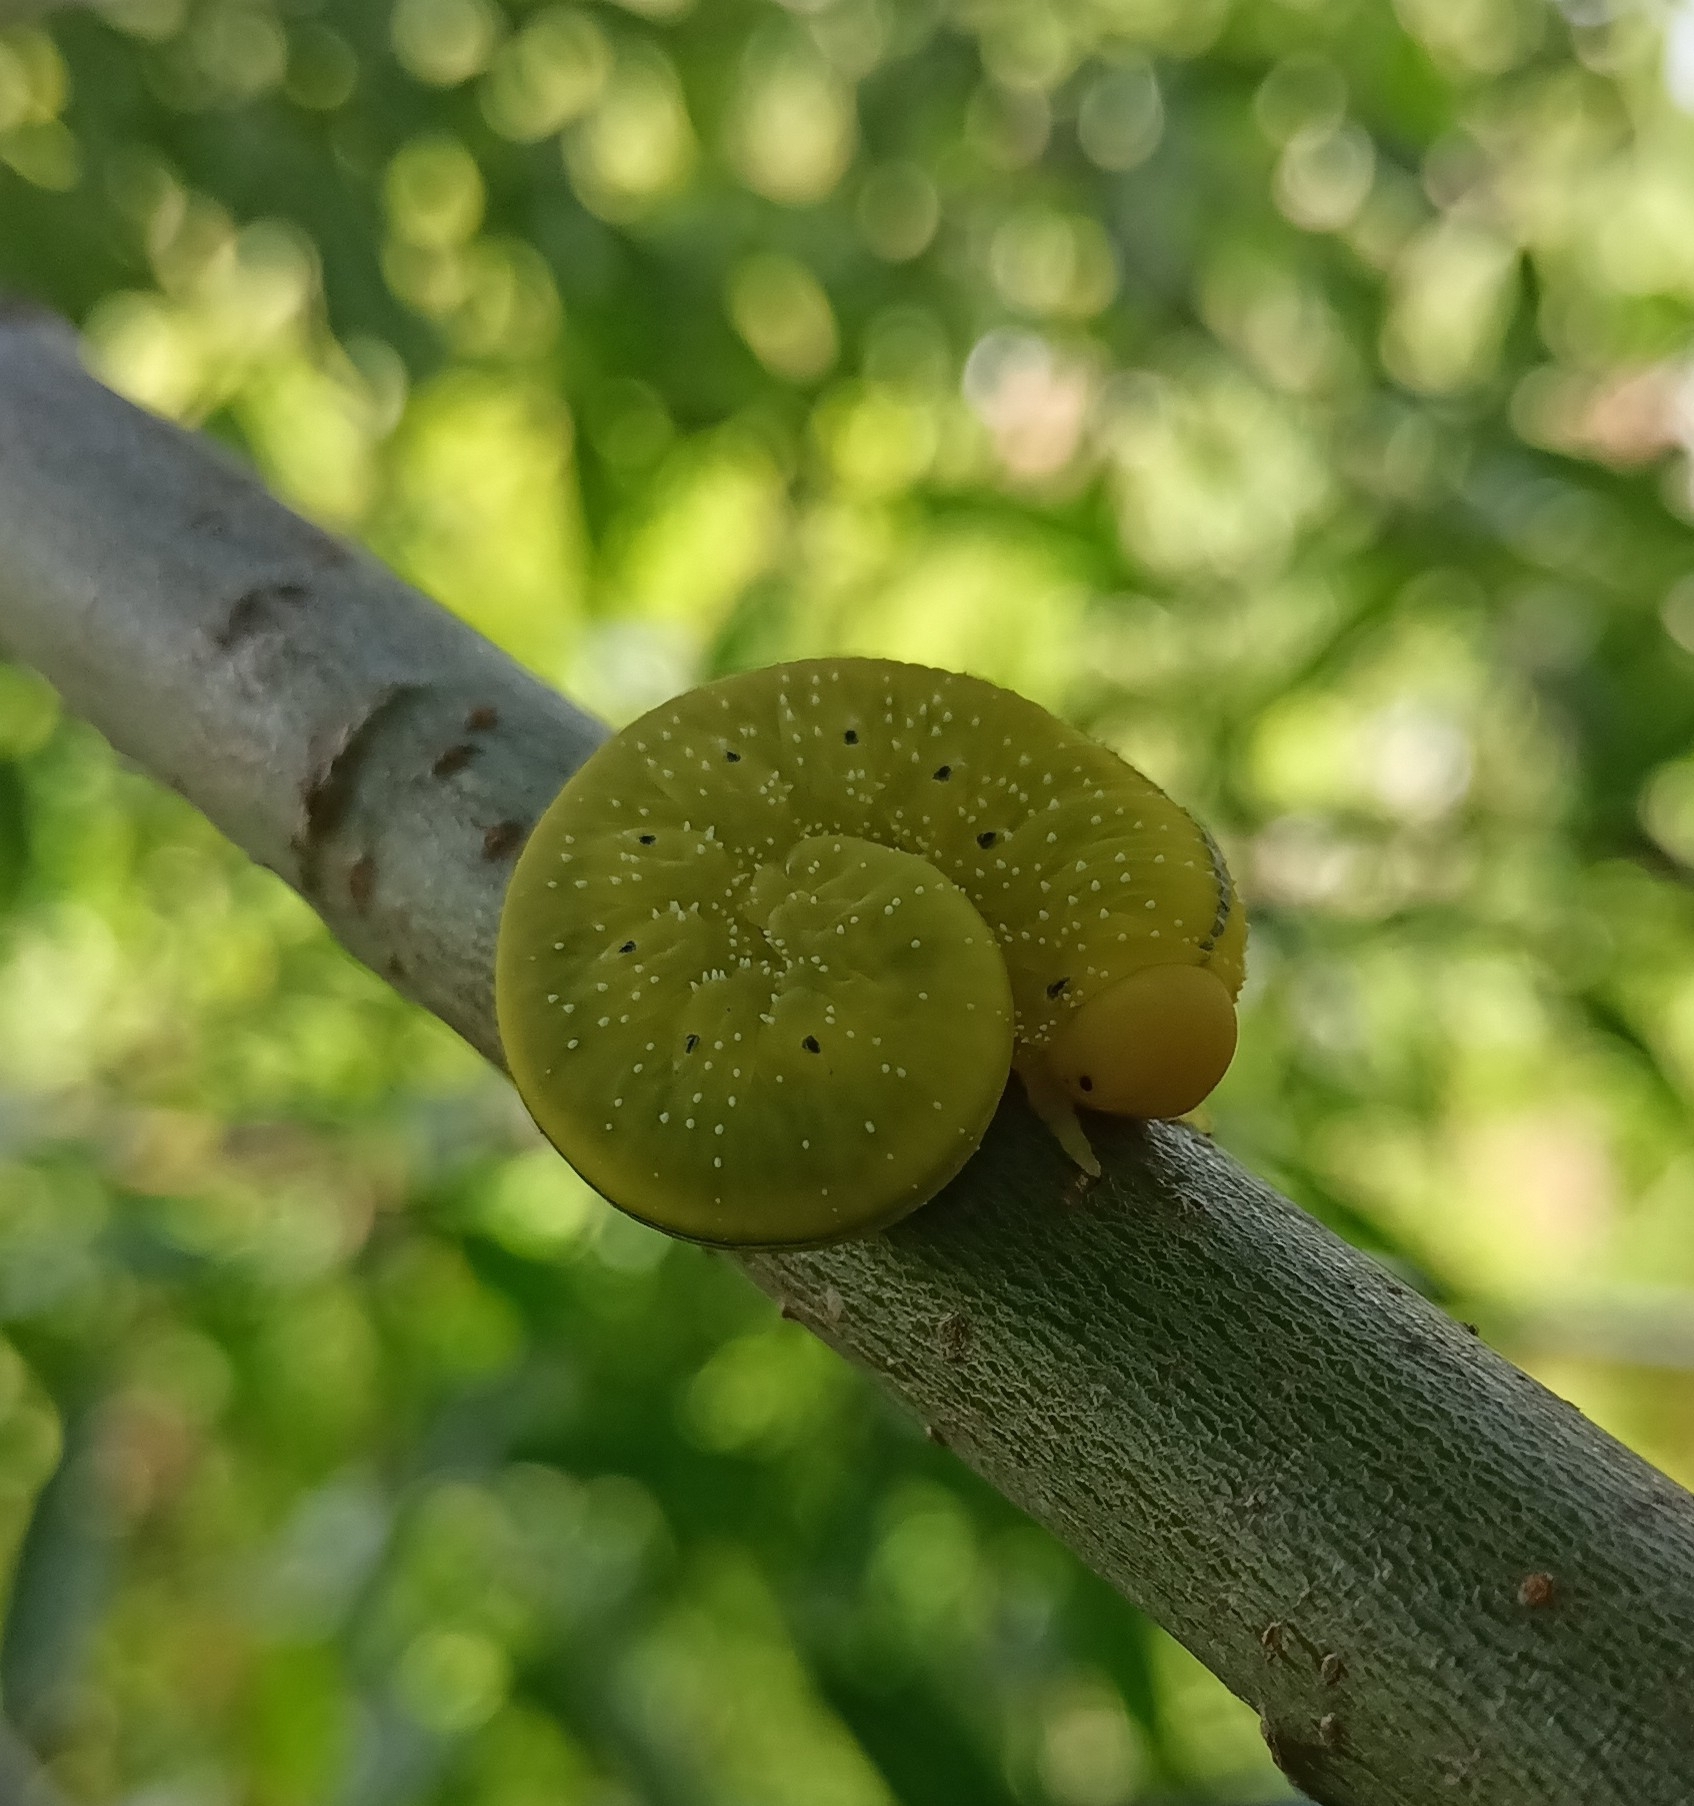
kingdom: Animalia
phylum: Arthropoda
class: Insecta
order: Hymenoptera
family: Cimbicidae
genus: Cimbex
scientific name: Cimbex luteus
